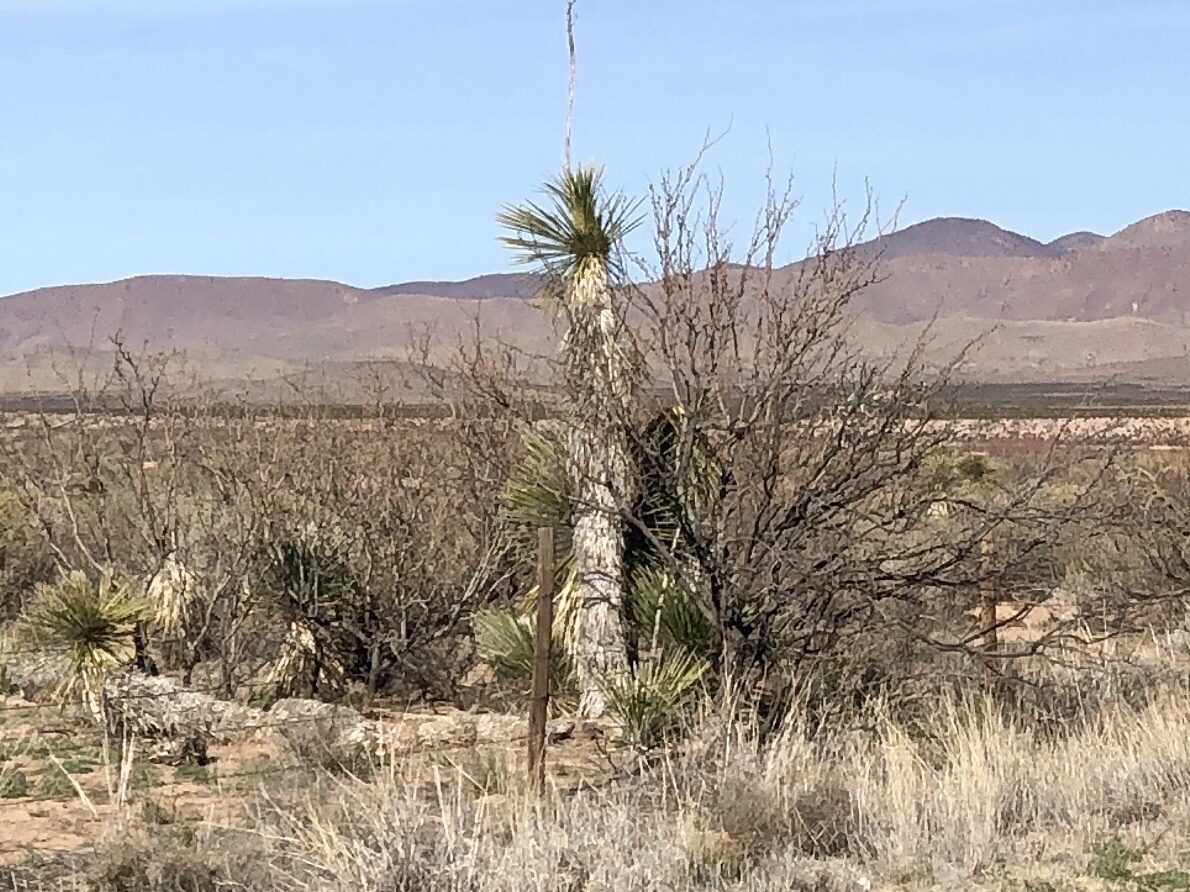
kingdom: Plantae
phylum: Tracheophyta
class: Liliopsida
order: Asparagales
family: Asparagaceae
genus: Yucca
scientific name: Yucca elata
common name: Palmella
